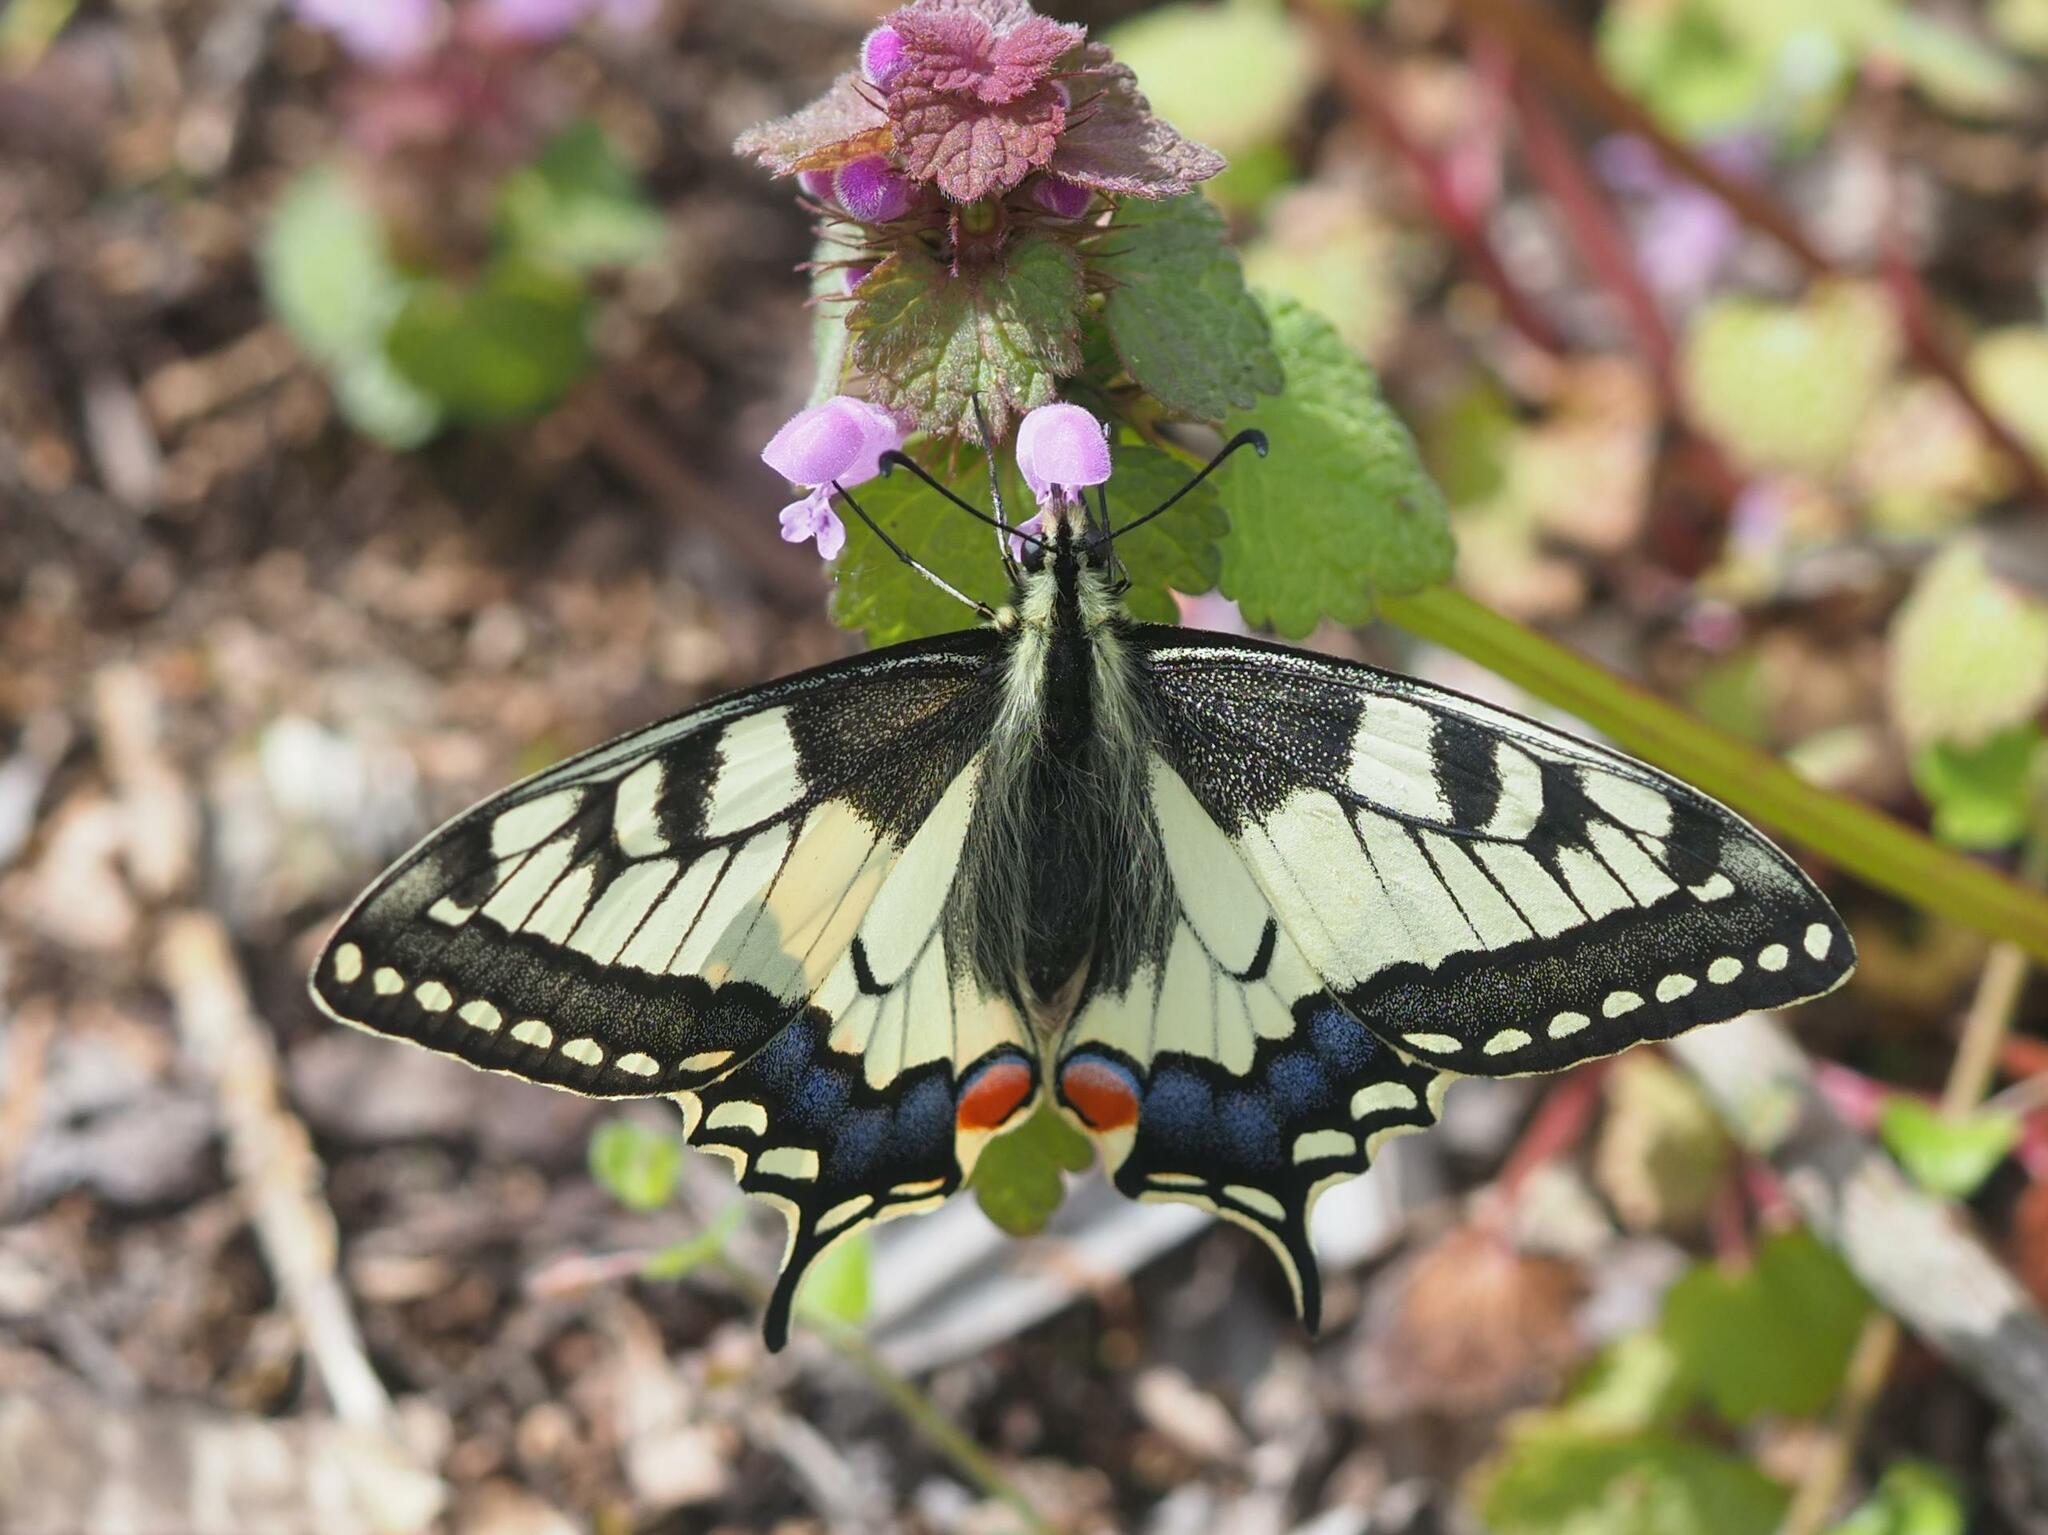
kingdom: Animalia
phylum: Arthropoda
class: Insecta
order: Lepidoptera
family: Papilionidae
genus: Papilio
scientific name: Papilio machaon
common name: Swallowtail
